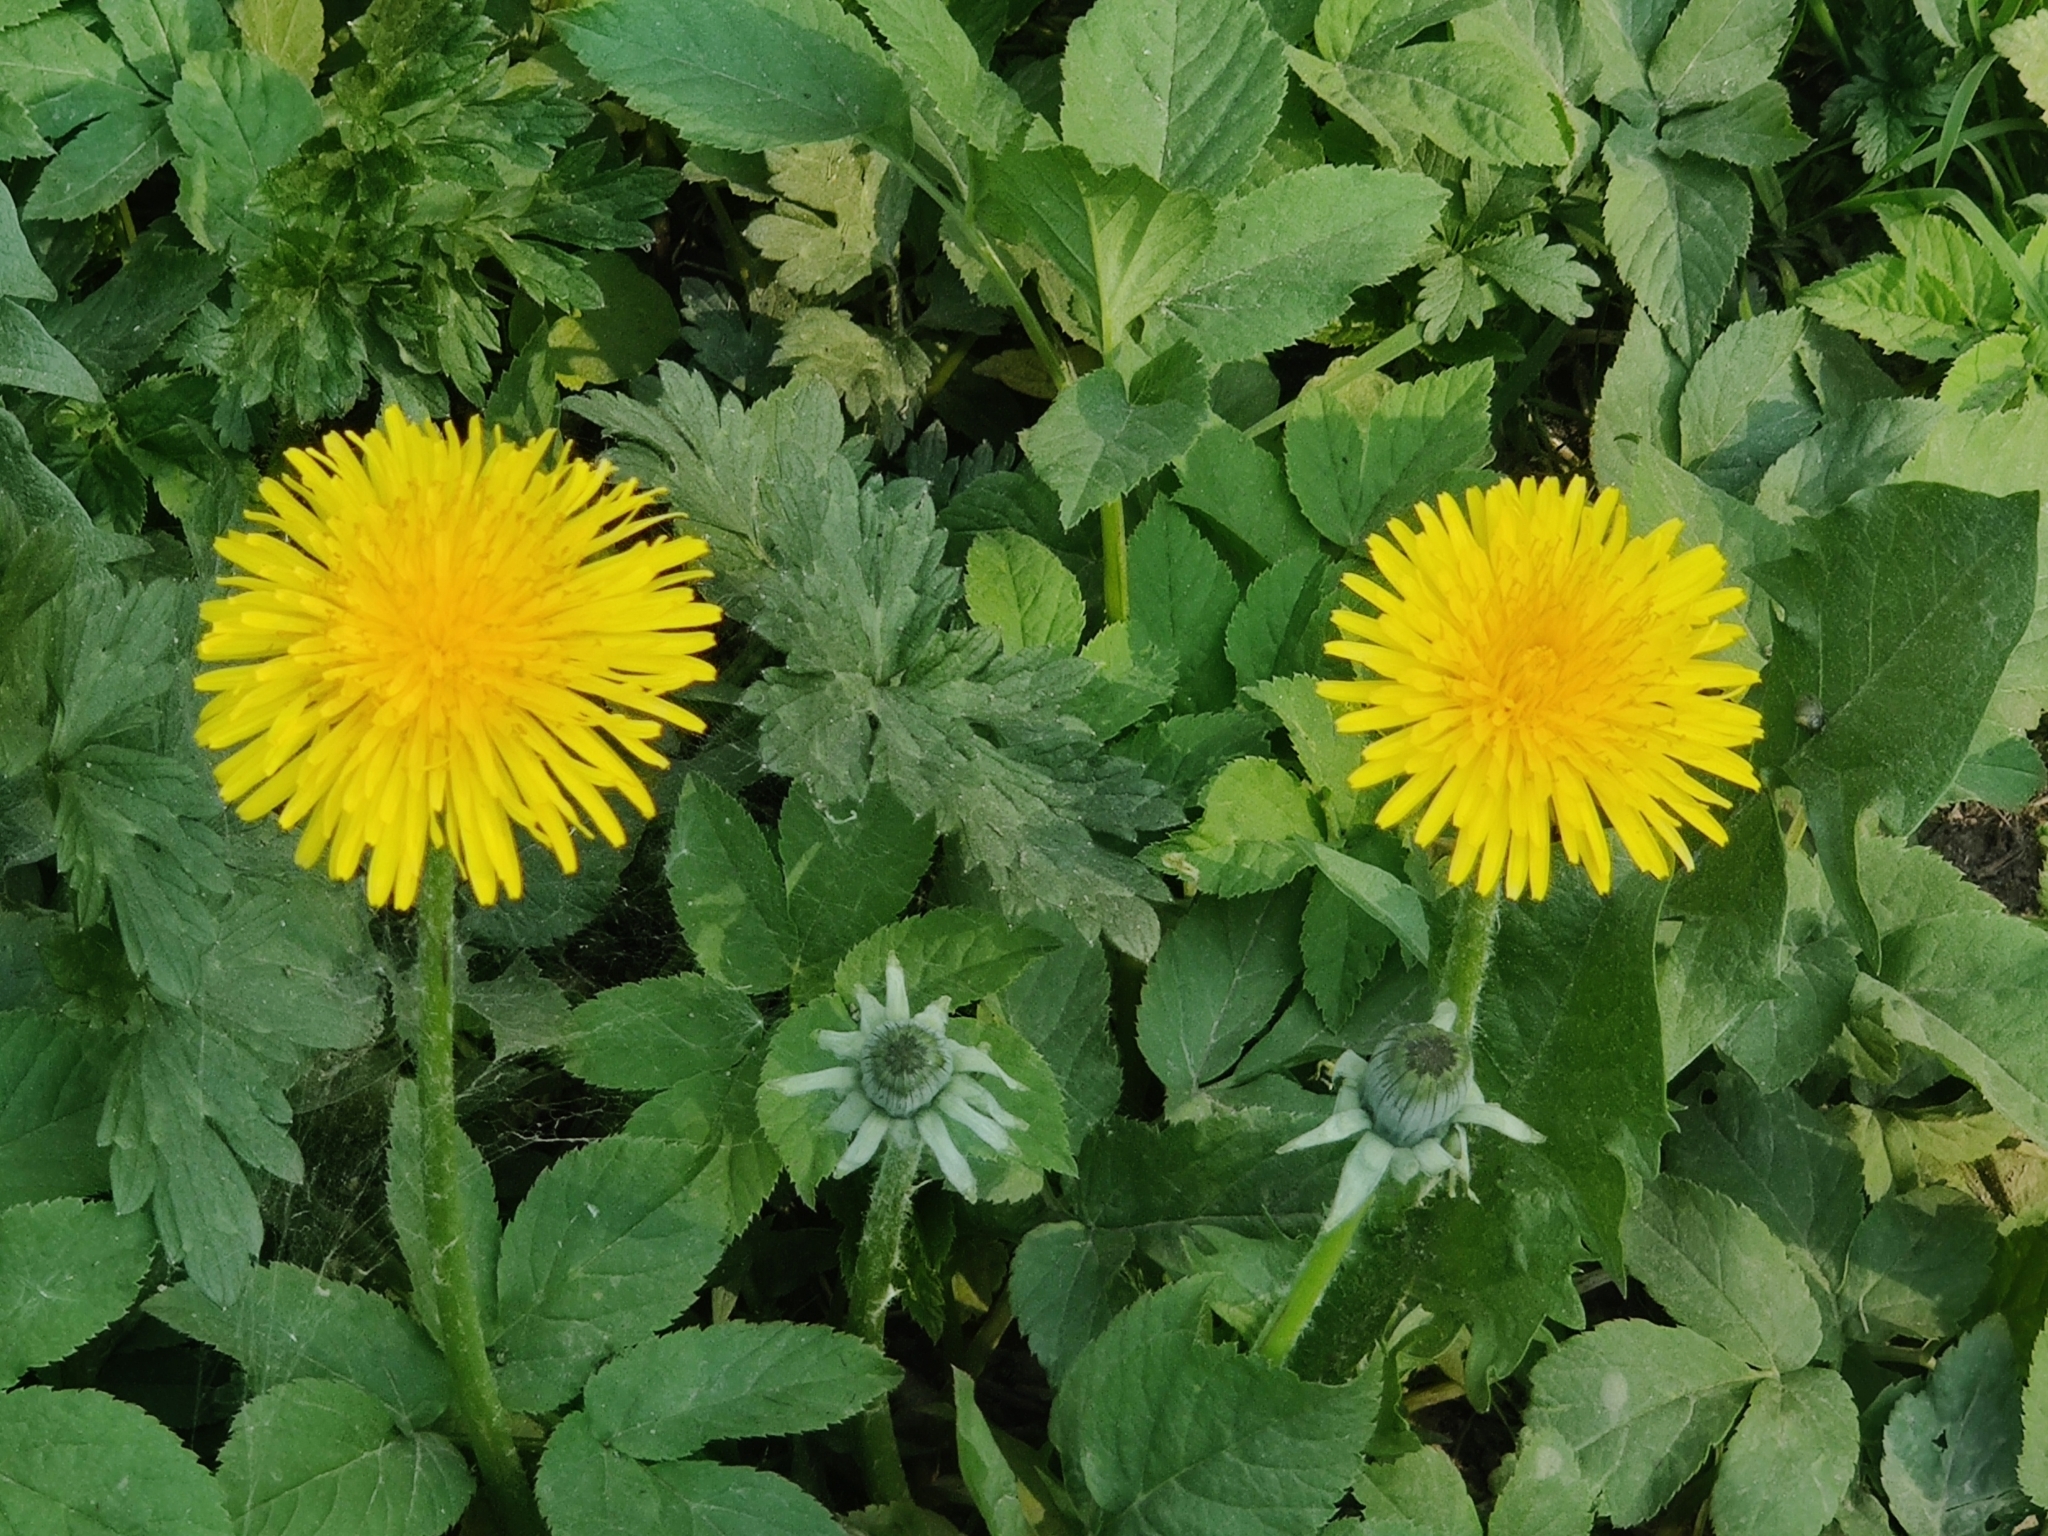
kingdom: Plantae
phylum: Tracheophyta
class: Magnoliopsida
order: Asterales
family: Asteraceae
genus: Taraxacum
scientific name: Taraxacum officinale
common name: Common dandelion
